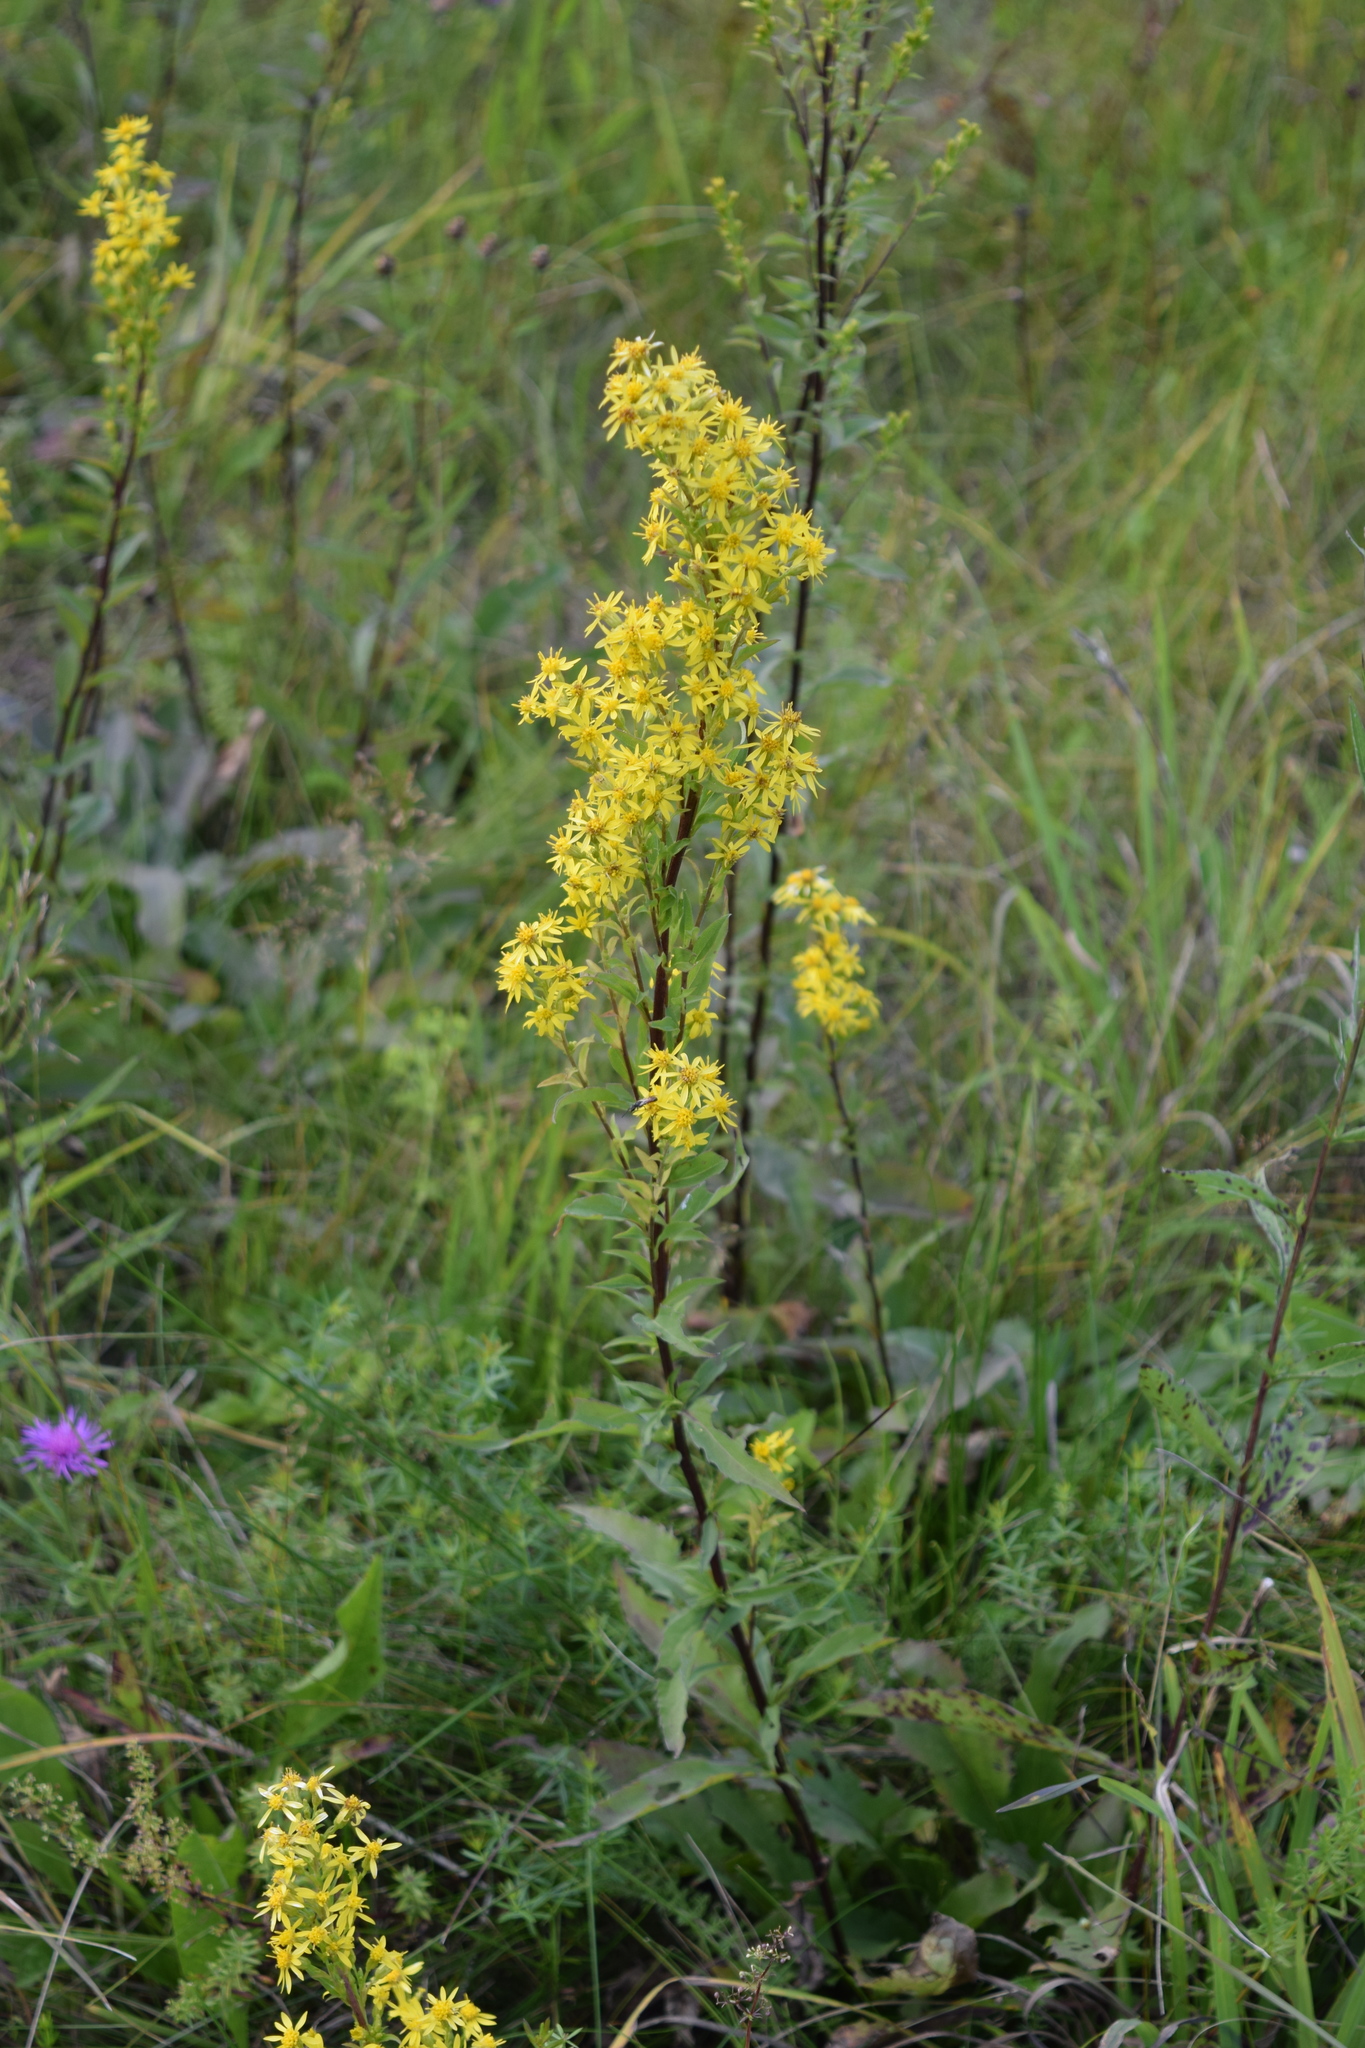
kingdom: Plantae
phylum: Tracheophyta
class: Magnoliopsida
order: Asterales
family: Asteraceae
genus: Solidago
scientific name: Solidago virgaurea
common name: Goldenrod
